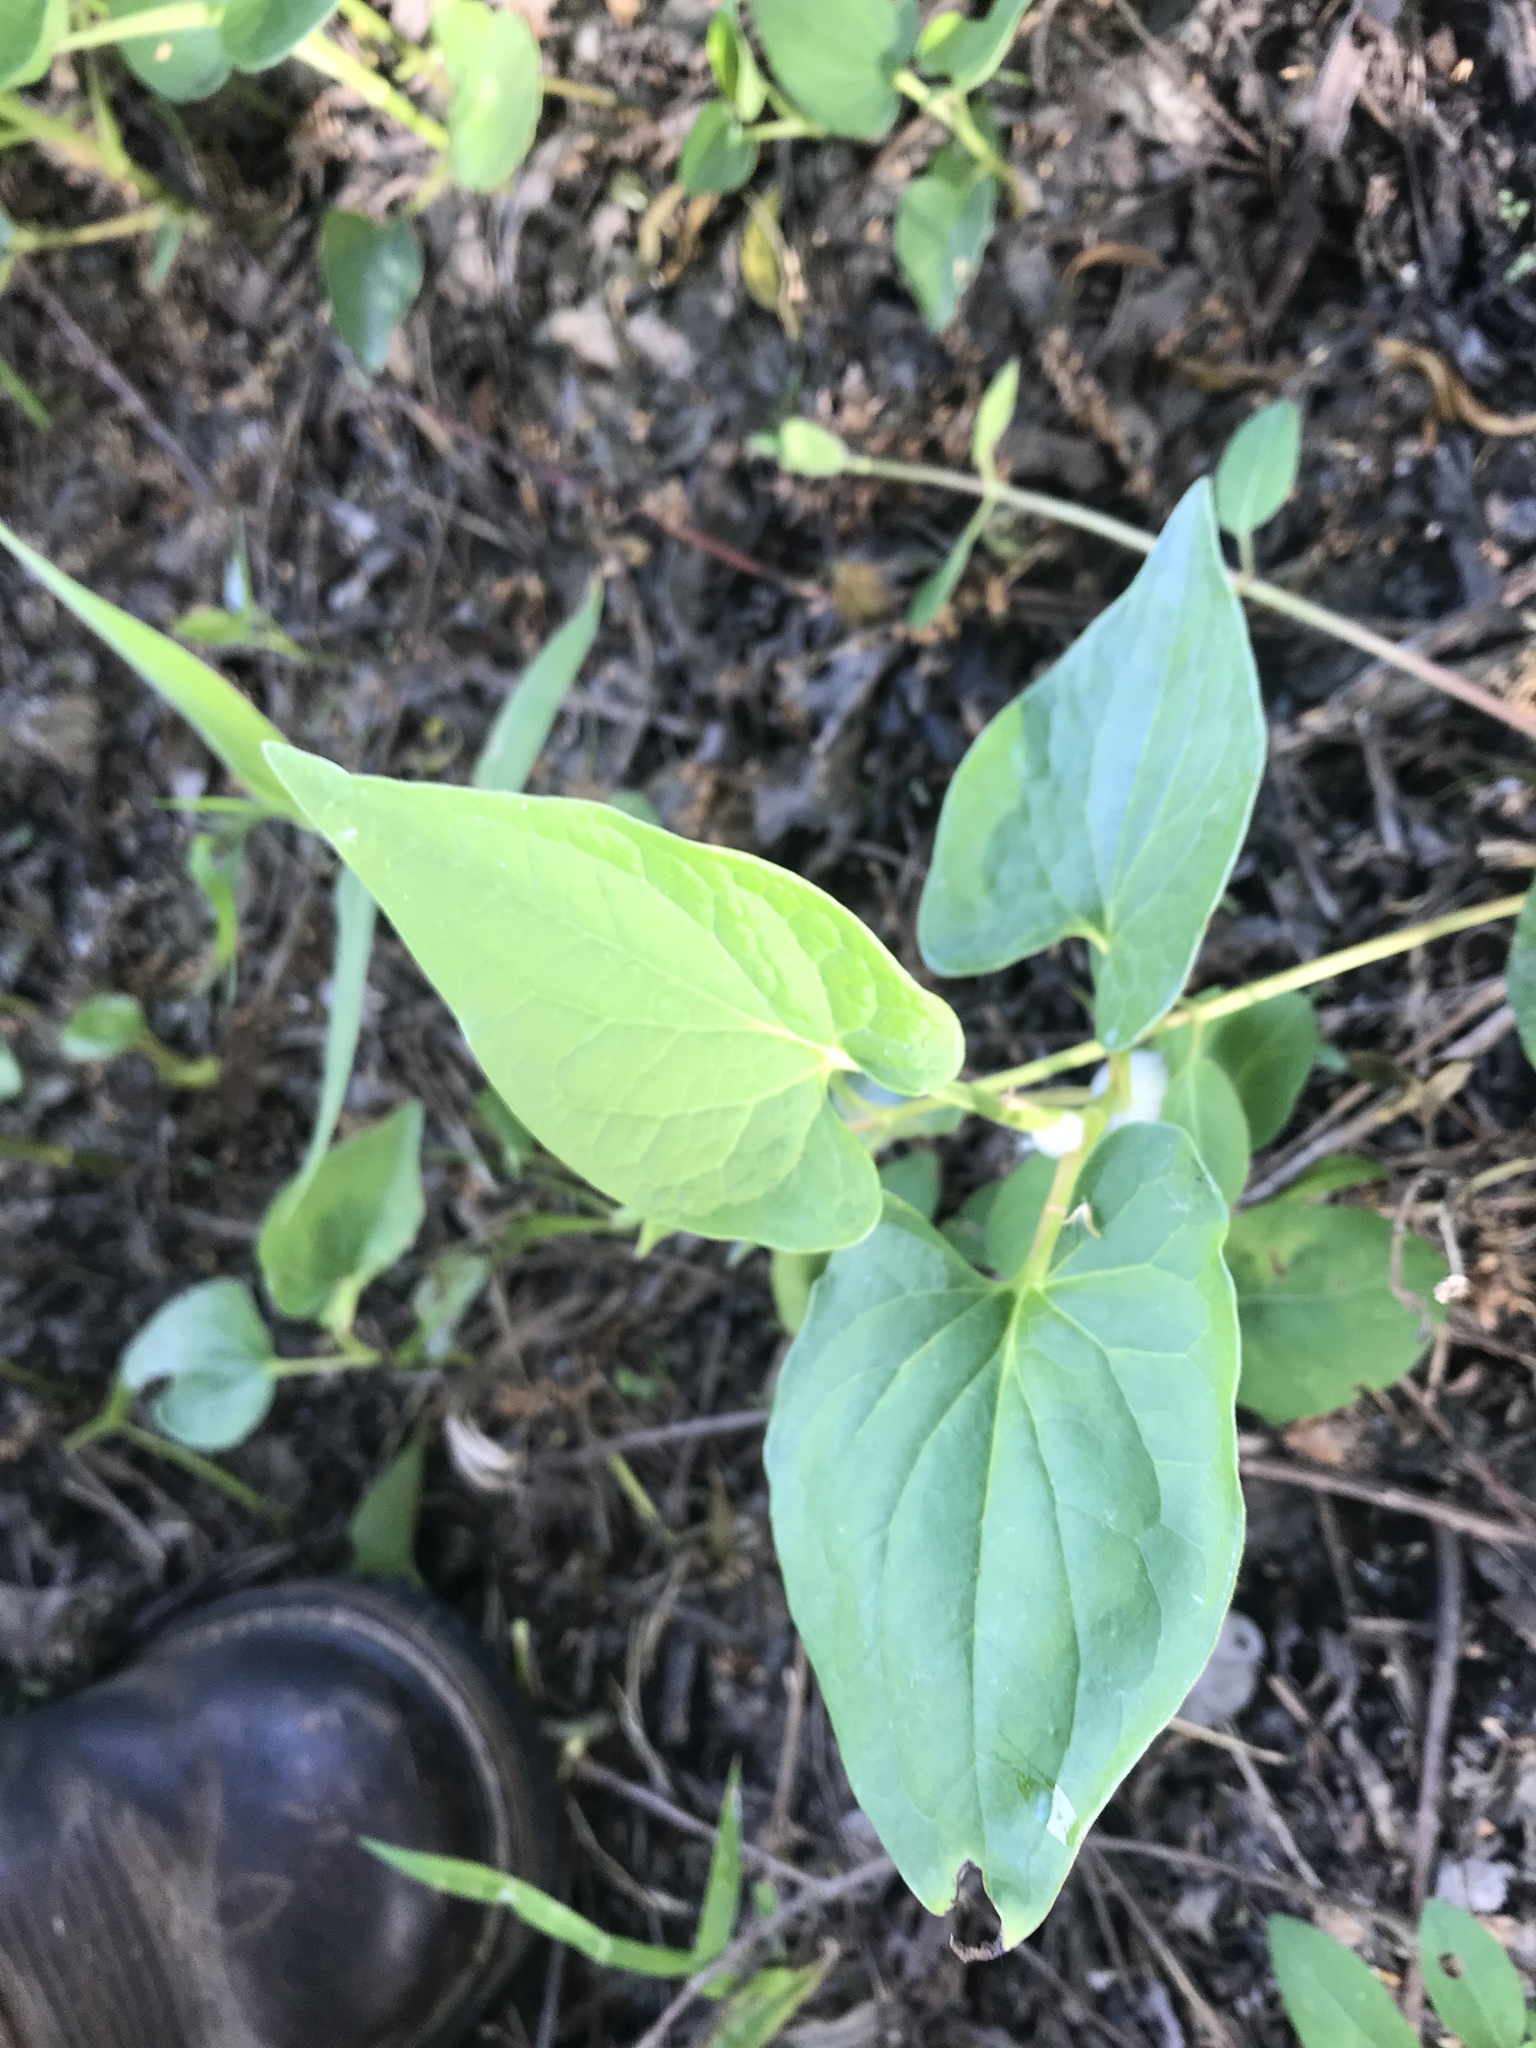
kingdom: Plantae
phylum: Tracheophyta
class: Magnoliopsida
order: Piperales
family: Saururaceae
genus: Saururus
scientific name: Saururus cernuus
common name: Lizard's-tail
